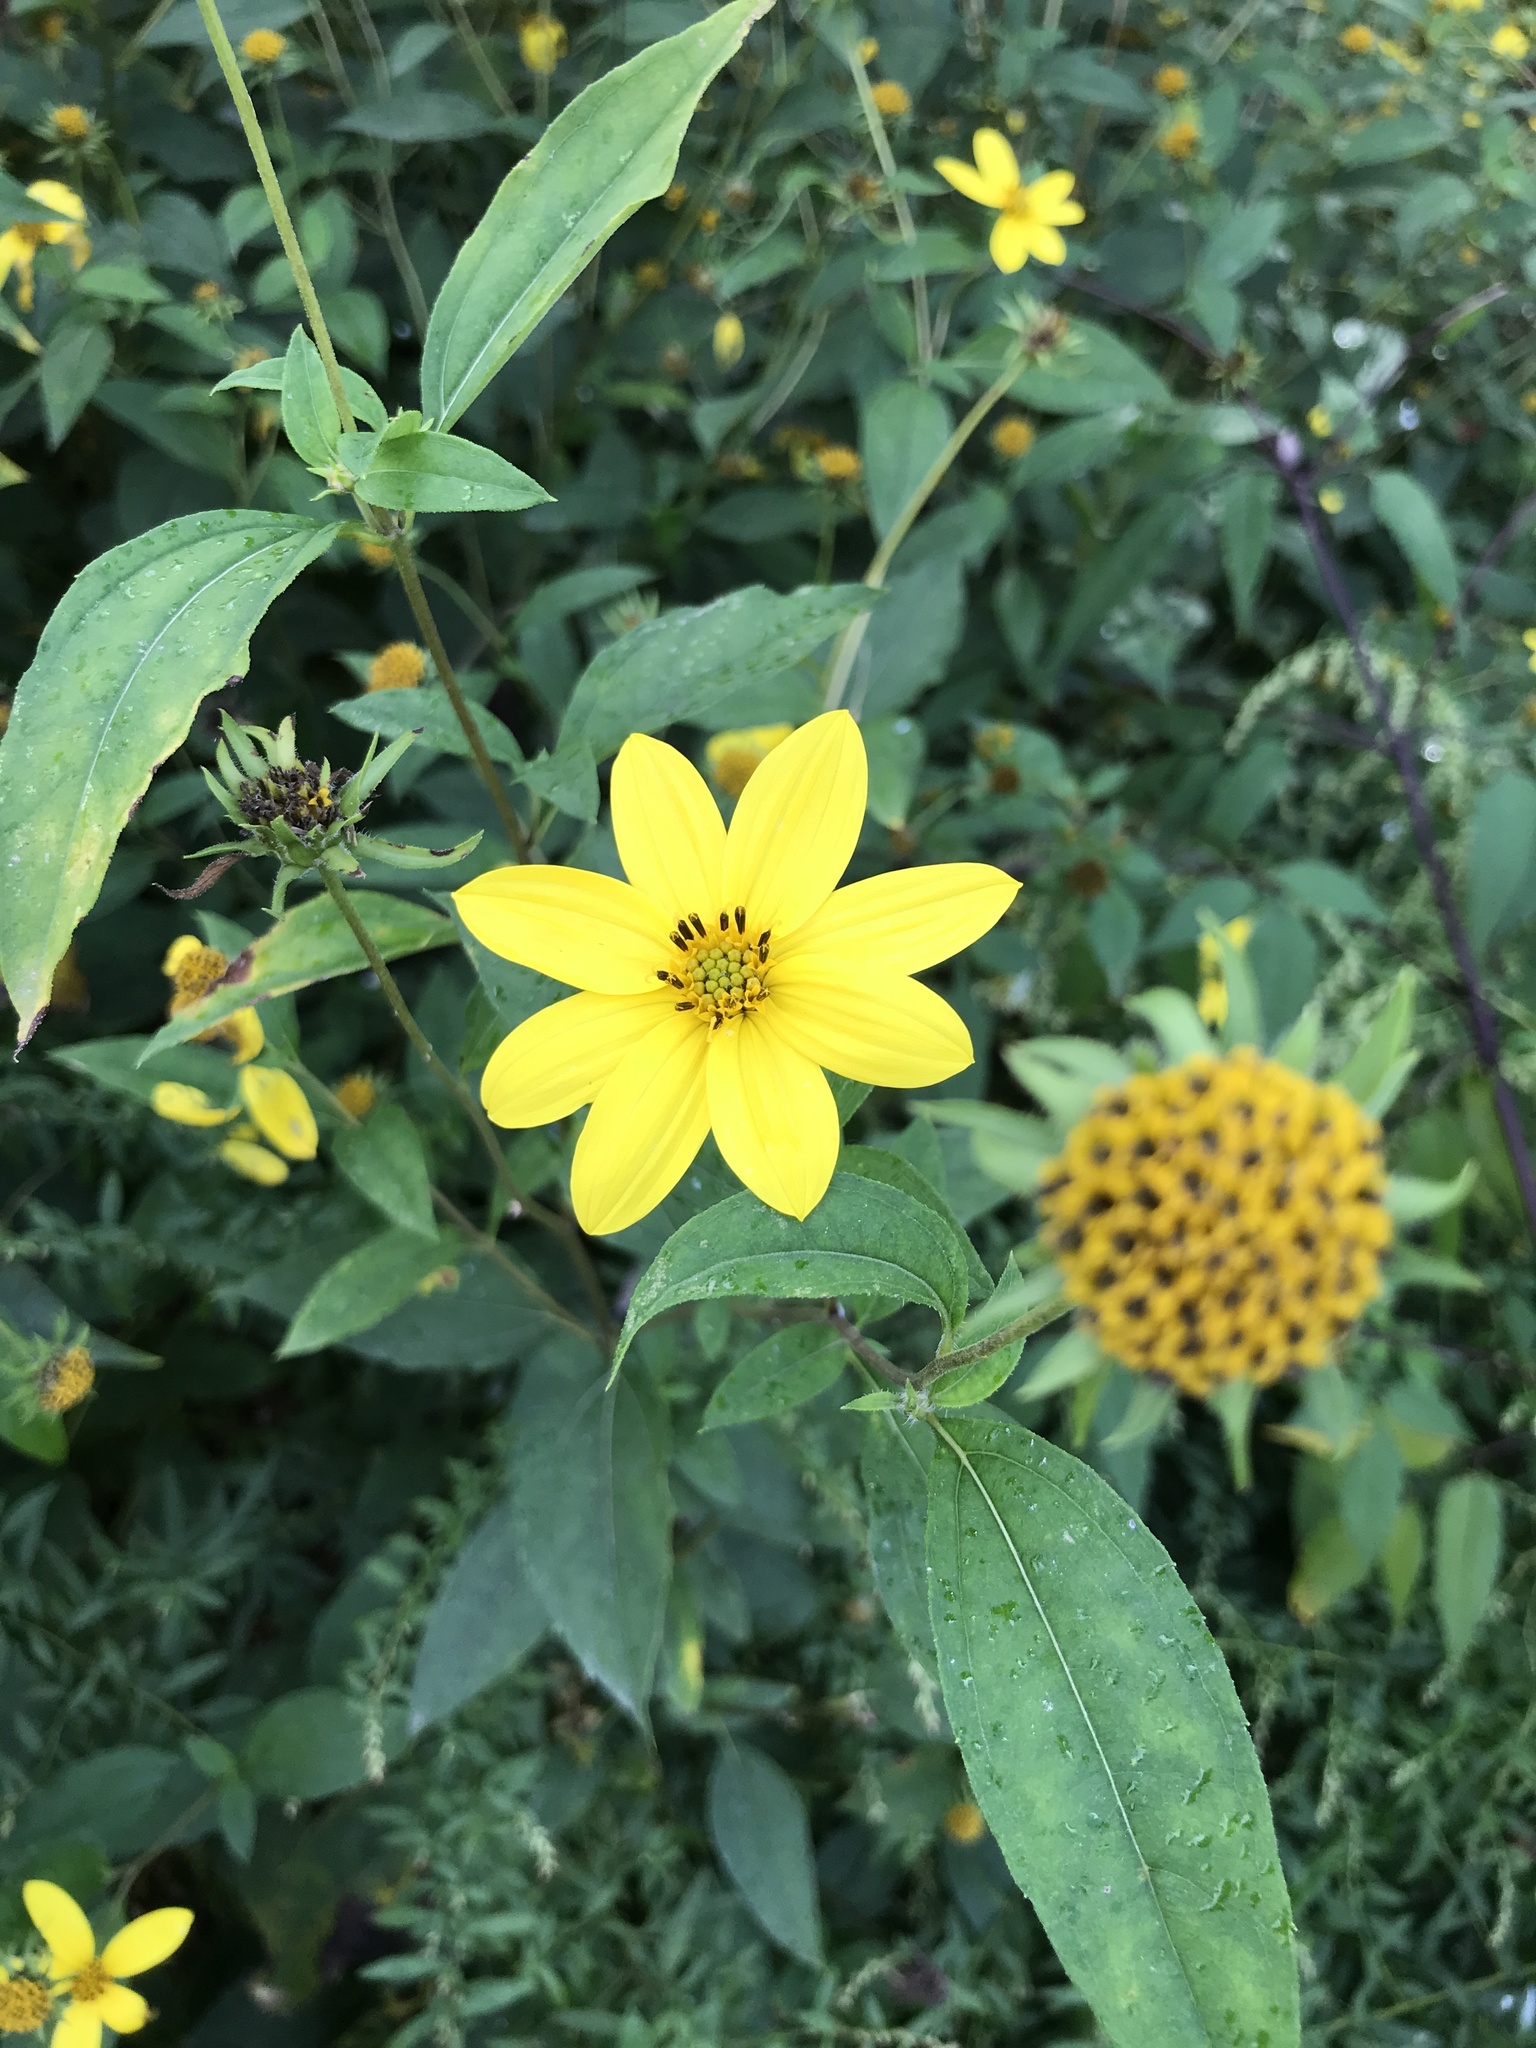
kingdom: Plantae
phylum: Tracheophyta
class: Magnoliopsida
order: Asterales
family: Asteraceae
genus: Helianthus
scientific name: Helianthus decapetalus
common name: Thin-leaved sunflower
